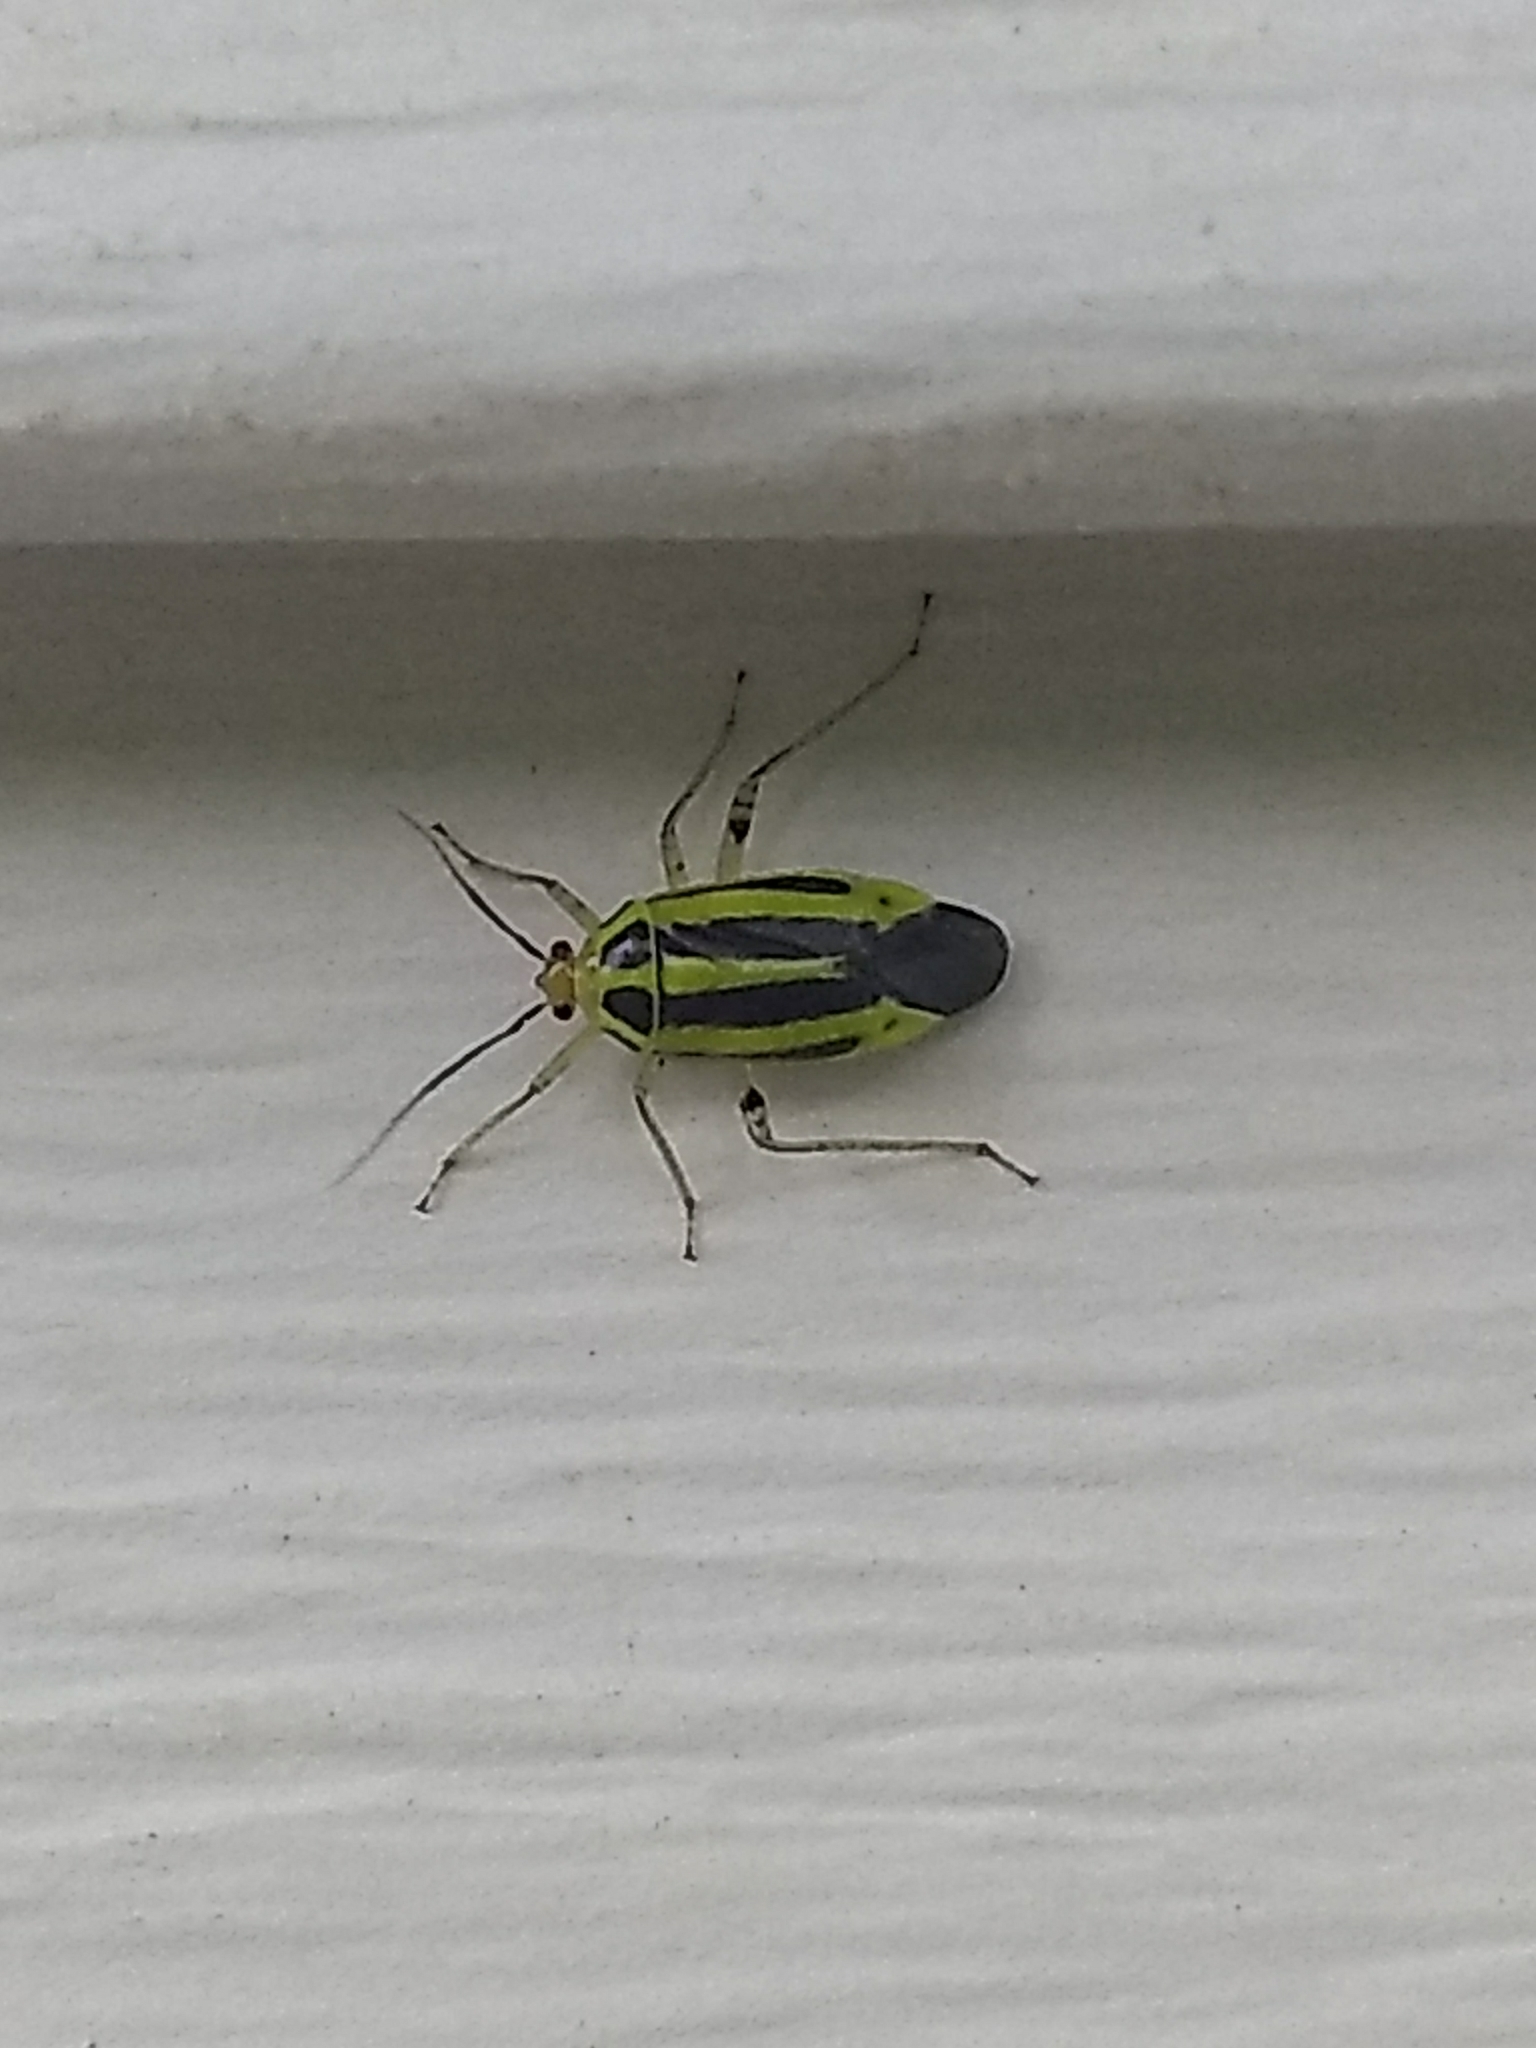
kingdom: Animalia
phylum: Arthropoda
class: Insecta
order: Hemiptera
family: Miridae
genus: Poecilocapsus
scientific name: Poecilocapsus lineatus
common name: Four-lined plant bug
